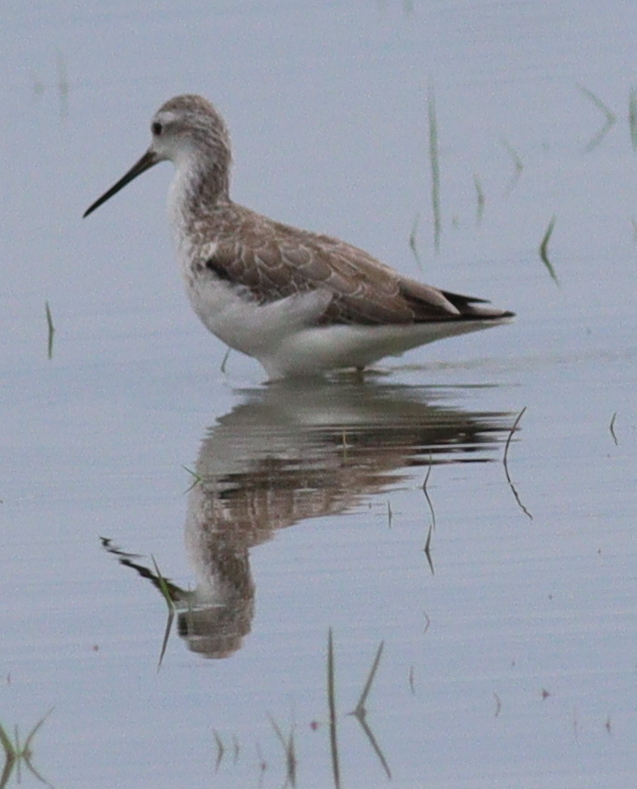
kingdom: Animalia
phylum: Chordata
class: Aves
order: Charadriiformes
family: Scolopacidae
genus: Tringa
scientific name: Tringa stagnatilis
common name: Marsh sandpiper
